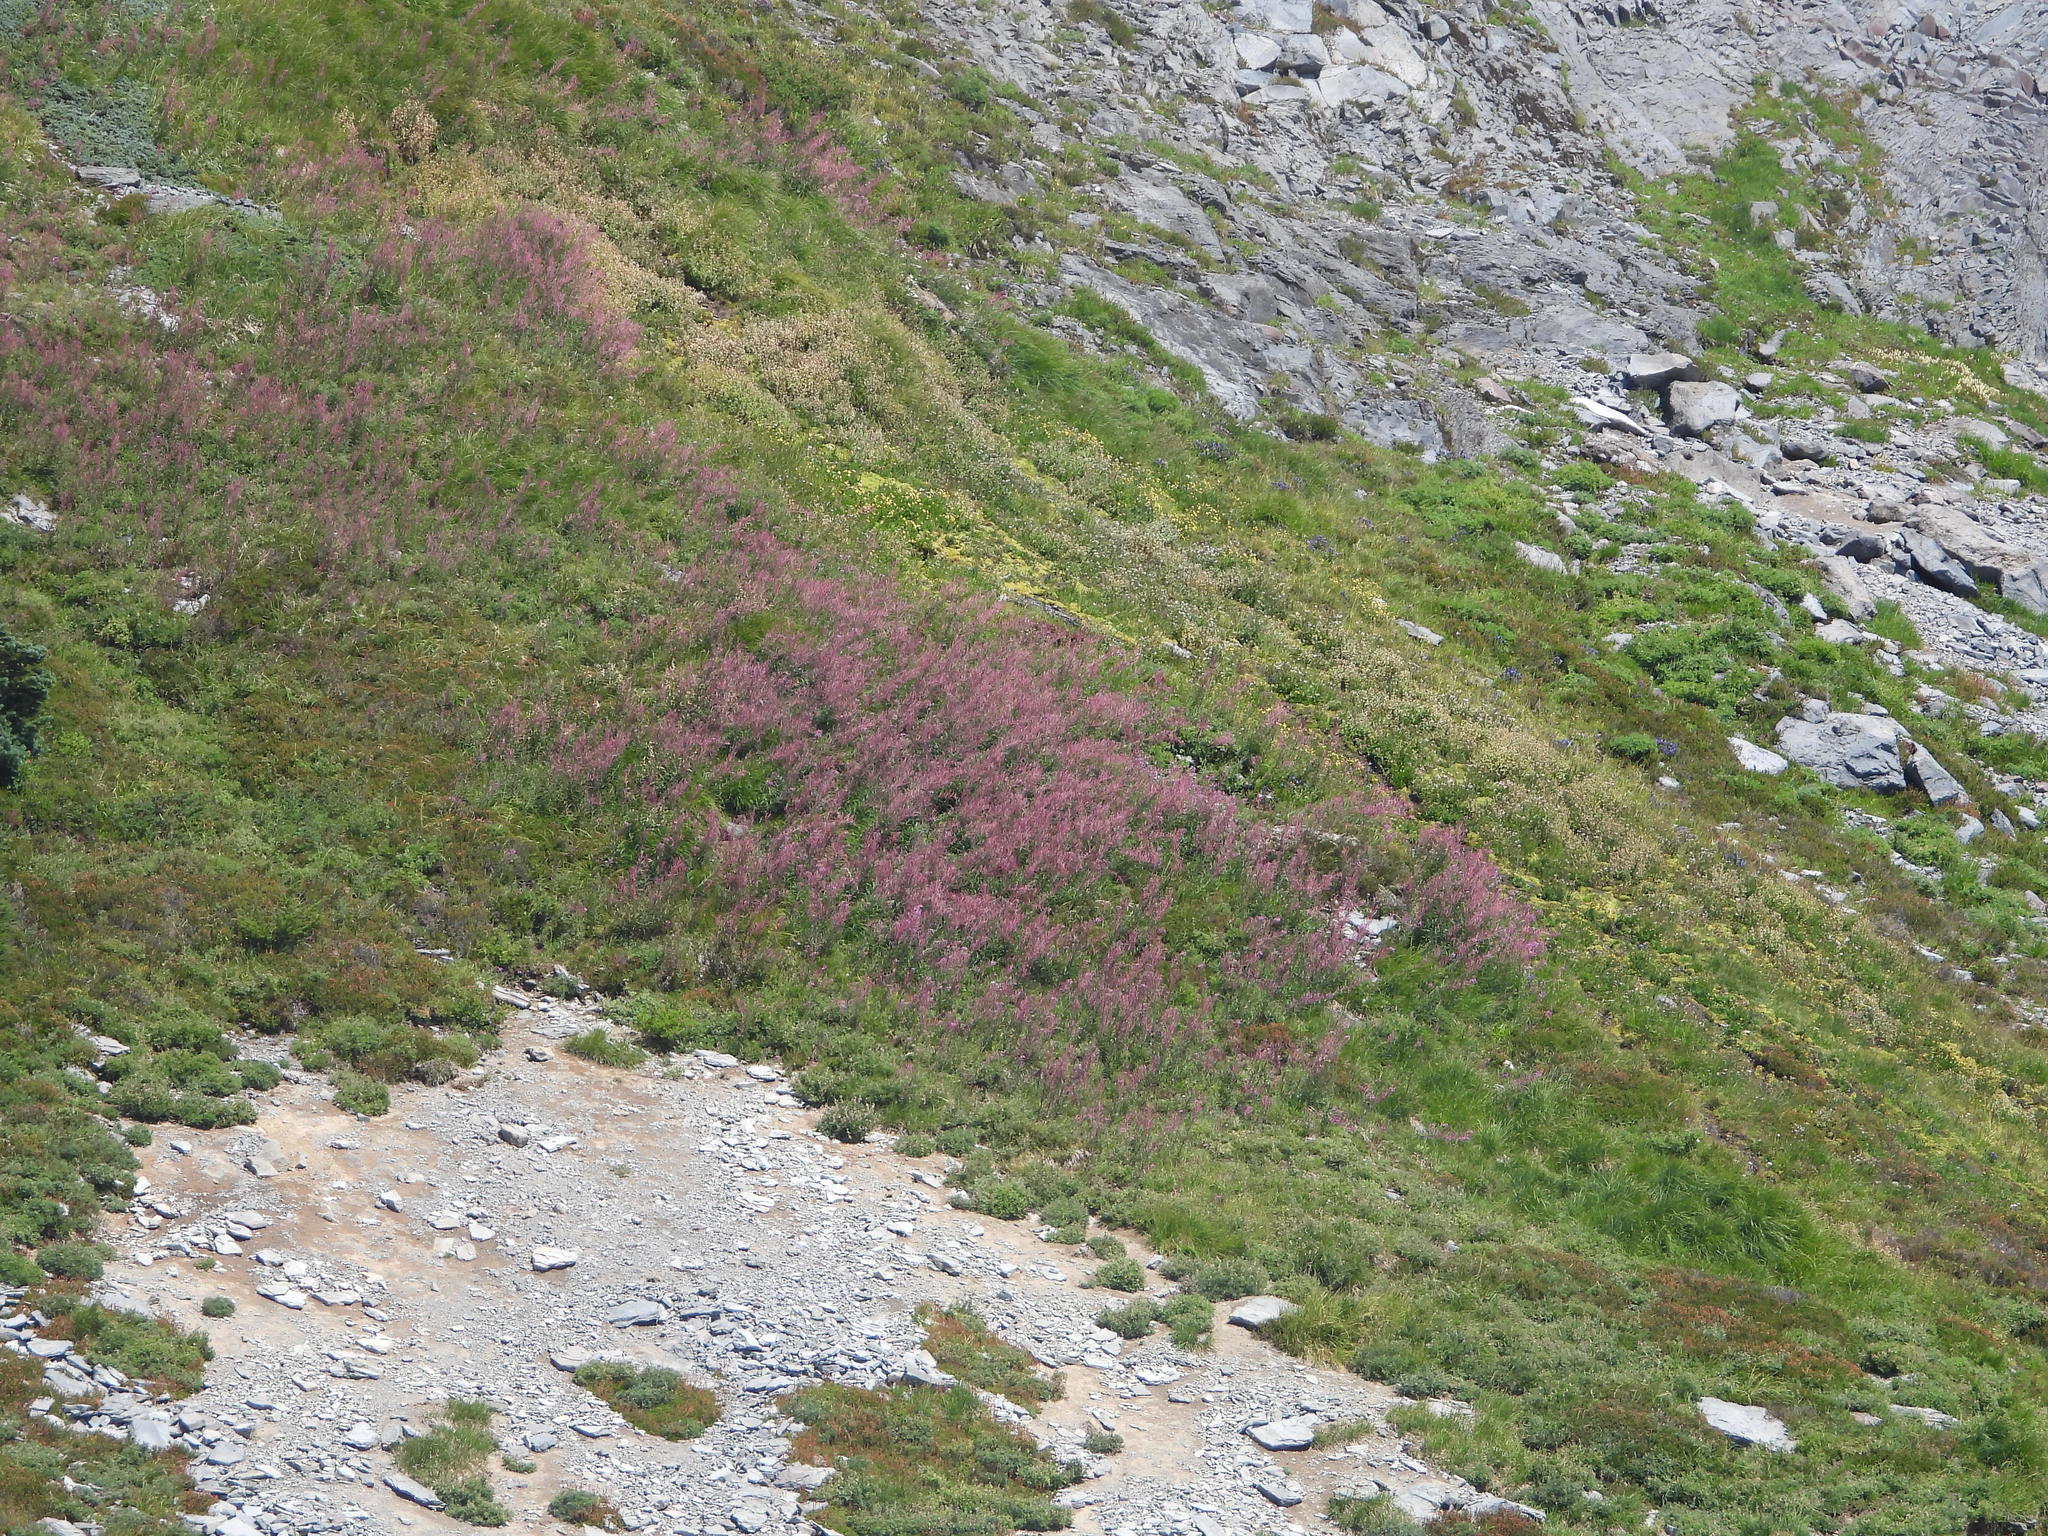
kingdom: Plantae
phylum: Tracheophyta
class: Magnoliopsida
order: Myrtales
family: Onagraceae
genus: Chamaenerion
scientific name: Chamaenerion angustifolium
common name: Fireweed
